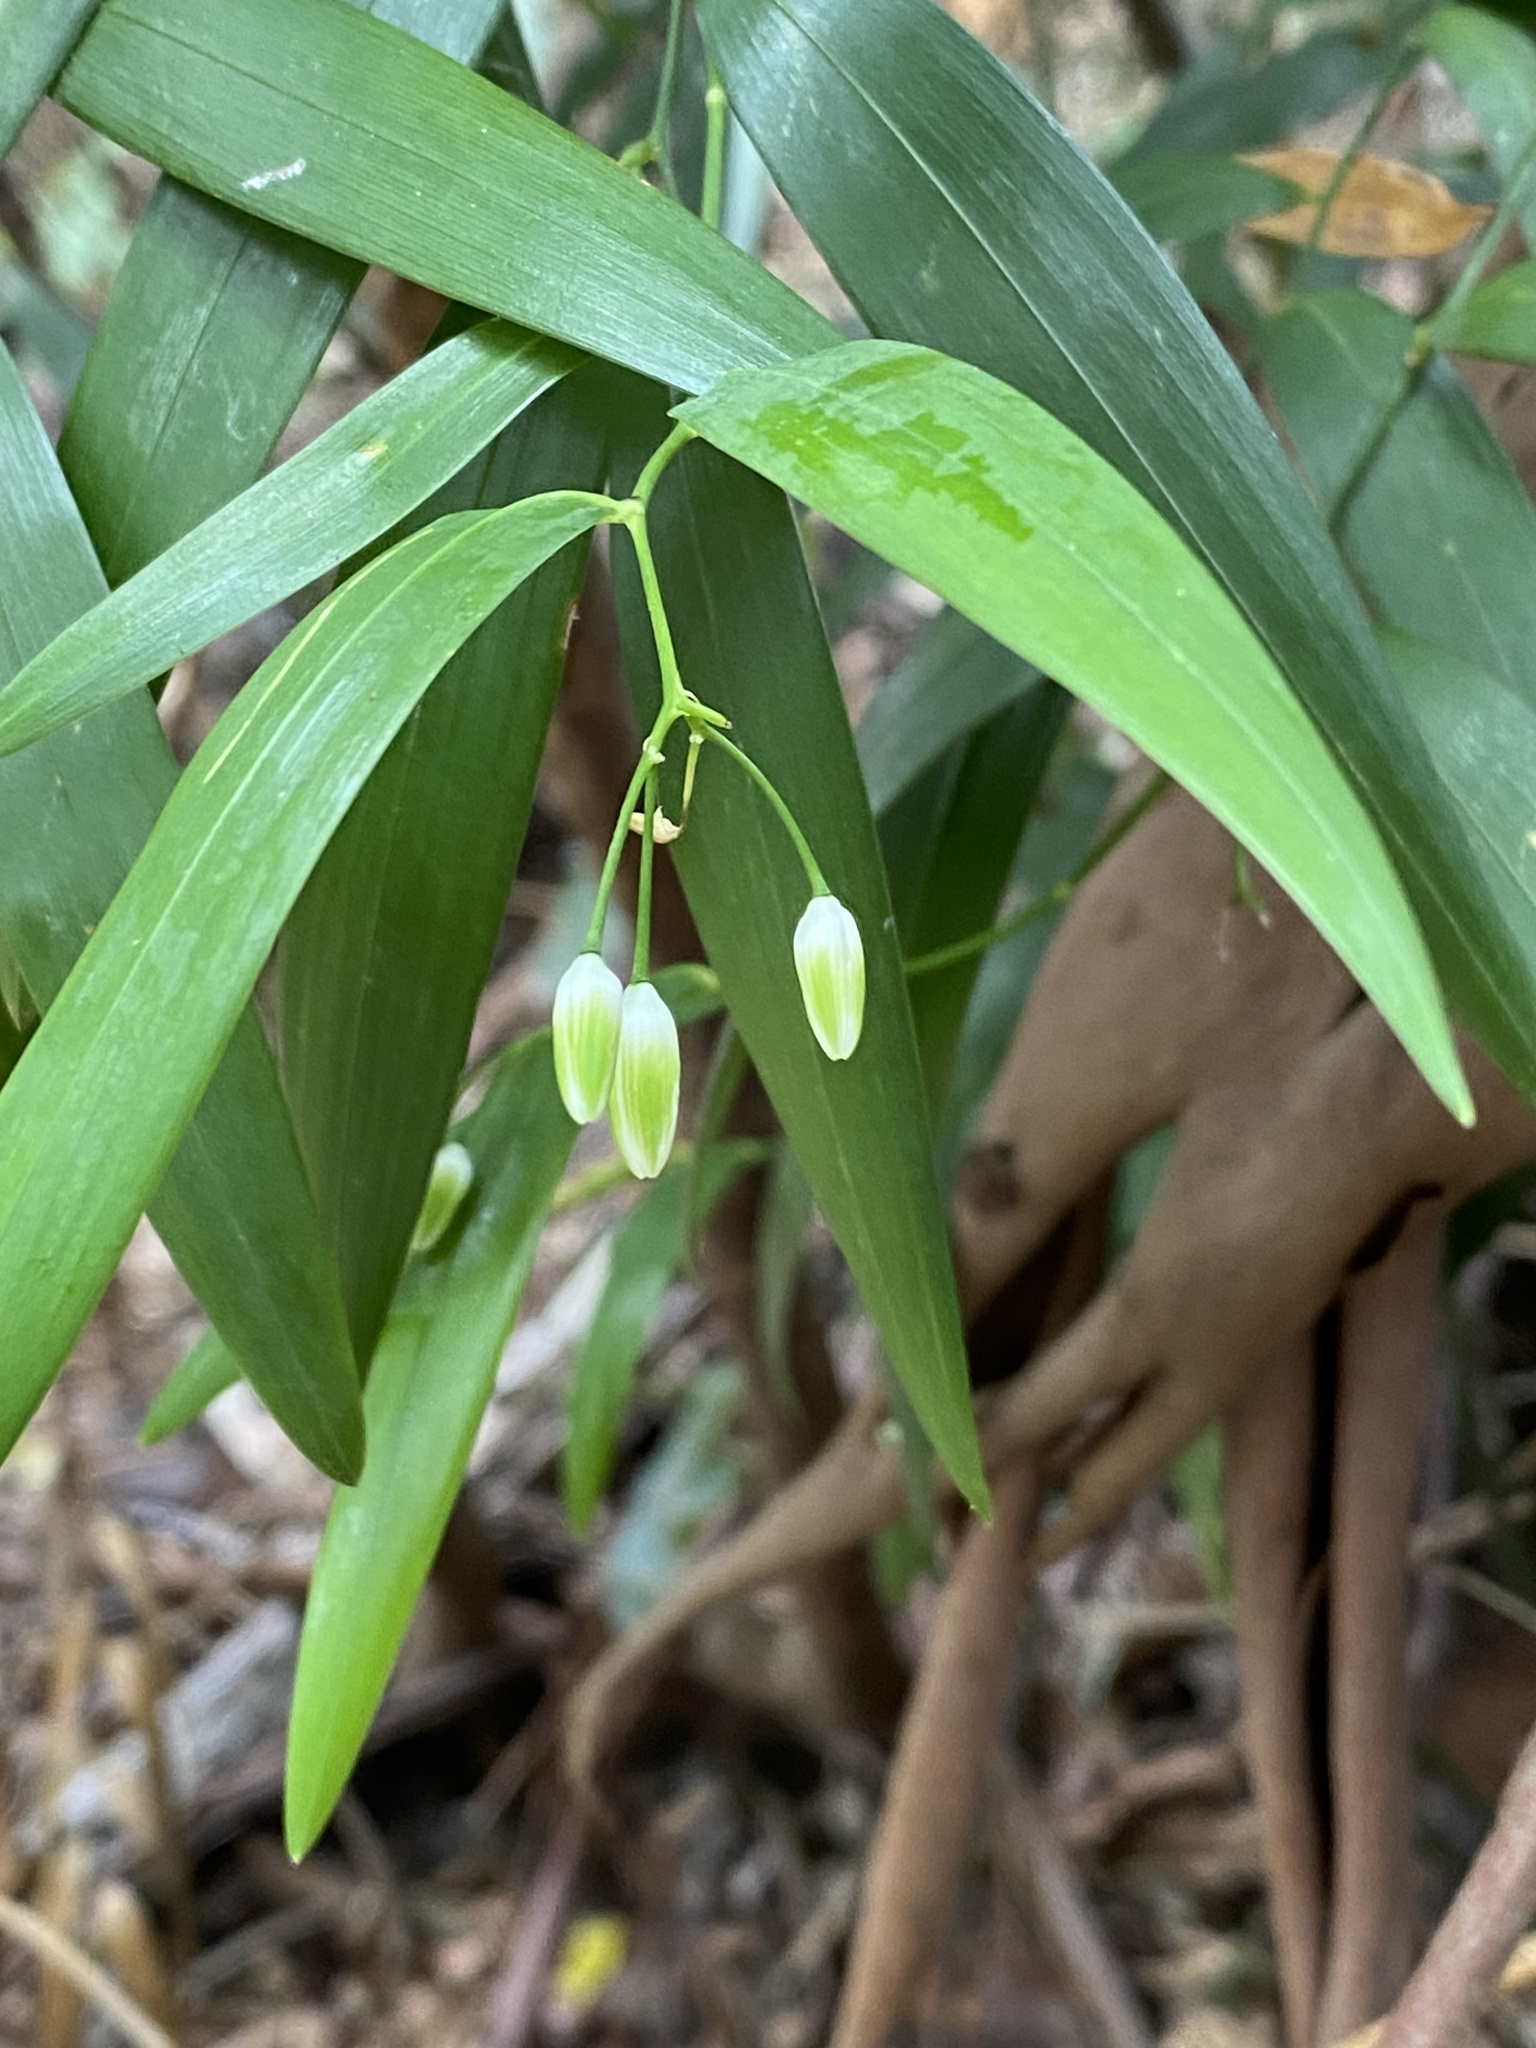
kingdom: Plantae
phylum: Tracheophyta
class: Liliopsida
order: Asparagales
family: Asphodelaceae
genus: Geitonoplesium
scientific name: Geitonoplesium cymosum
